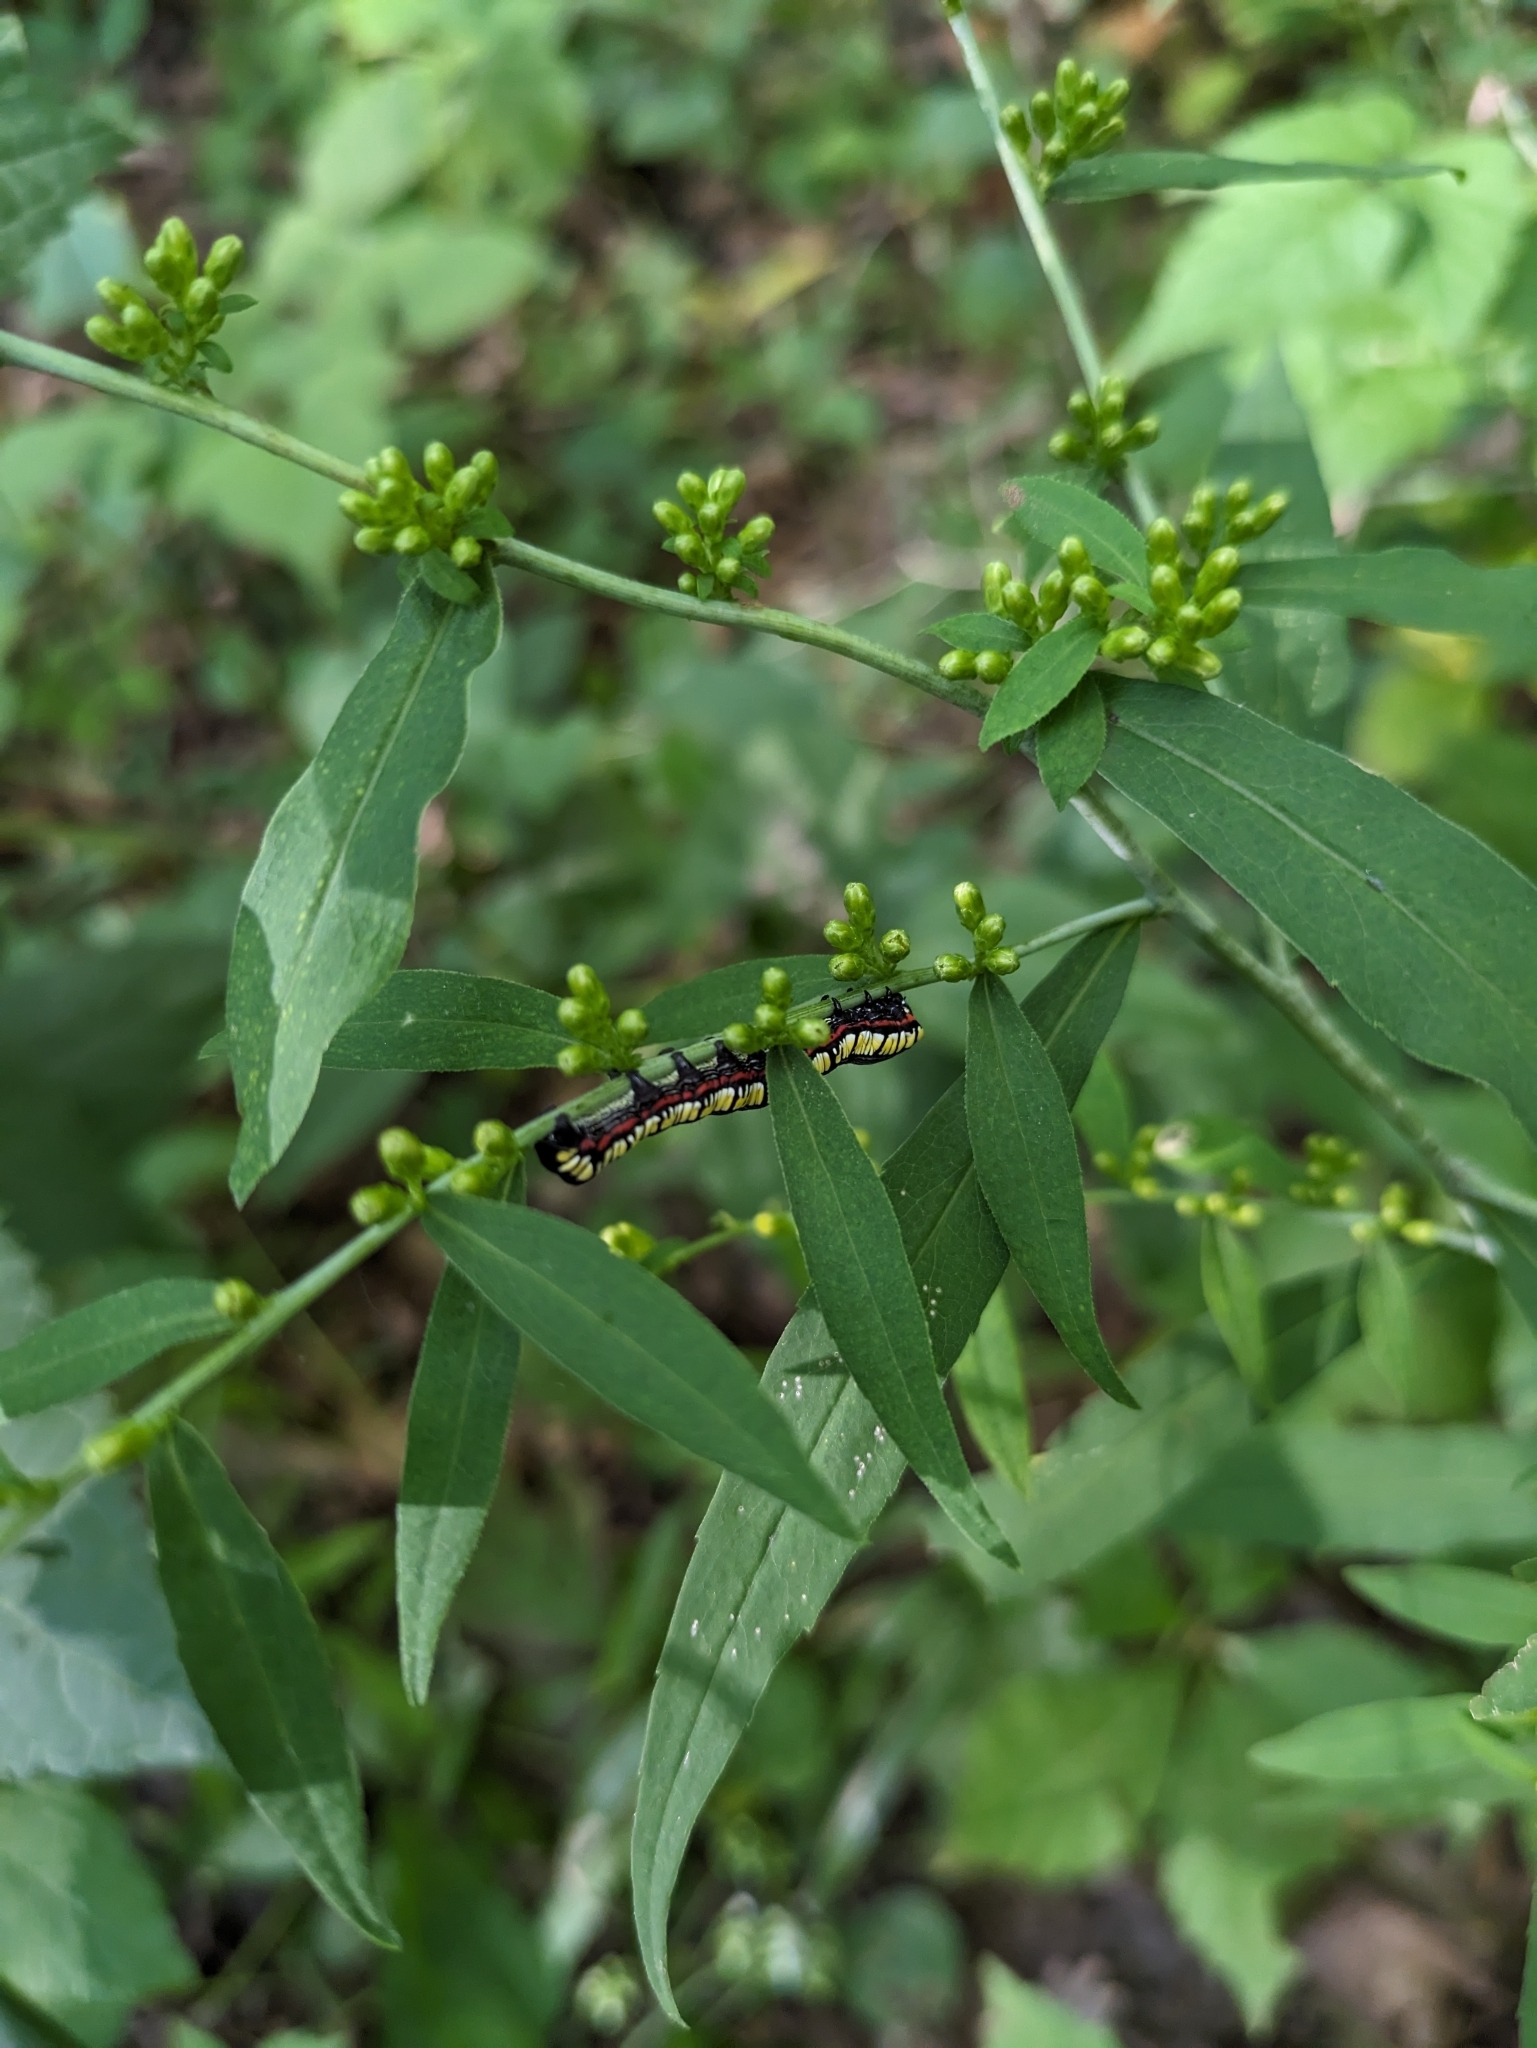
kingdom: Animalia
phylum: Arthropoda
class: Insecta
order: Lepidoptera
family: Noctuidae
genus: Cucullia
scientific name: Cucullia convexipennis
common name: Brown-hooded owlet
